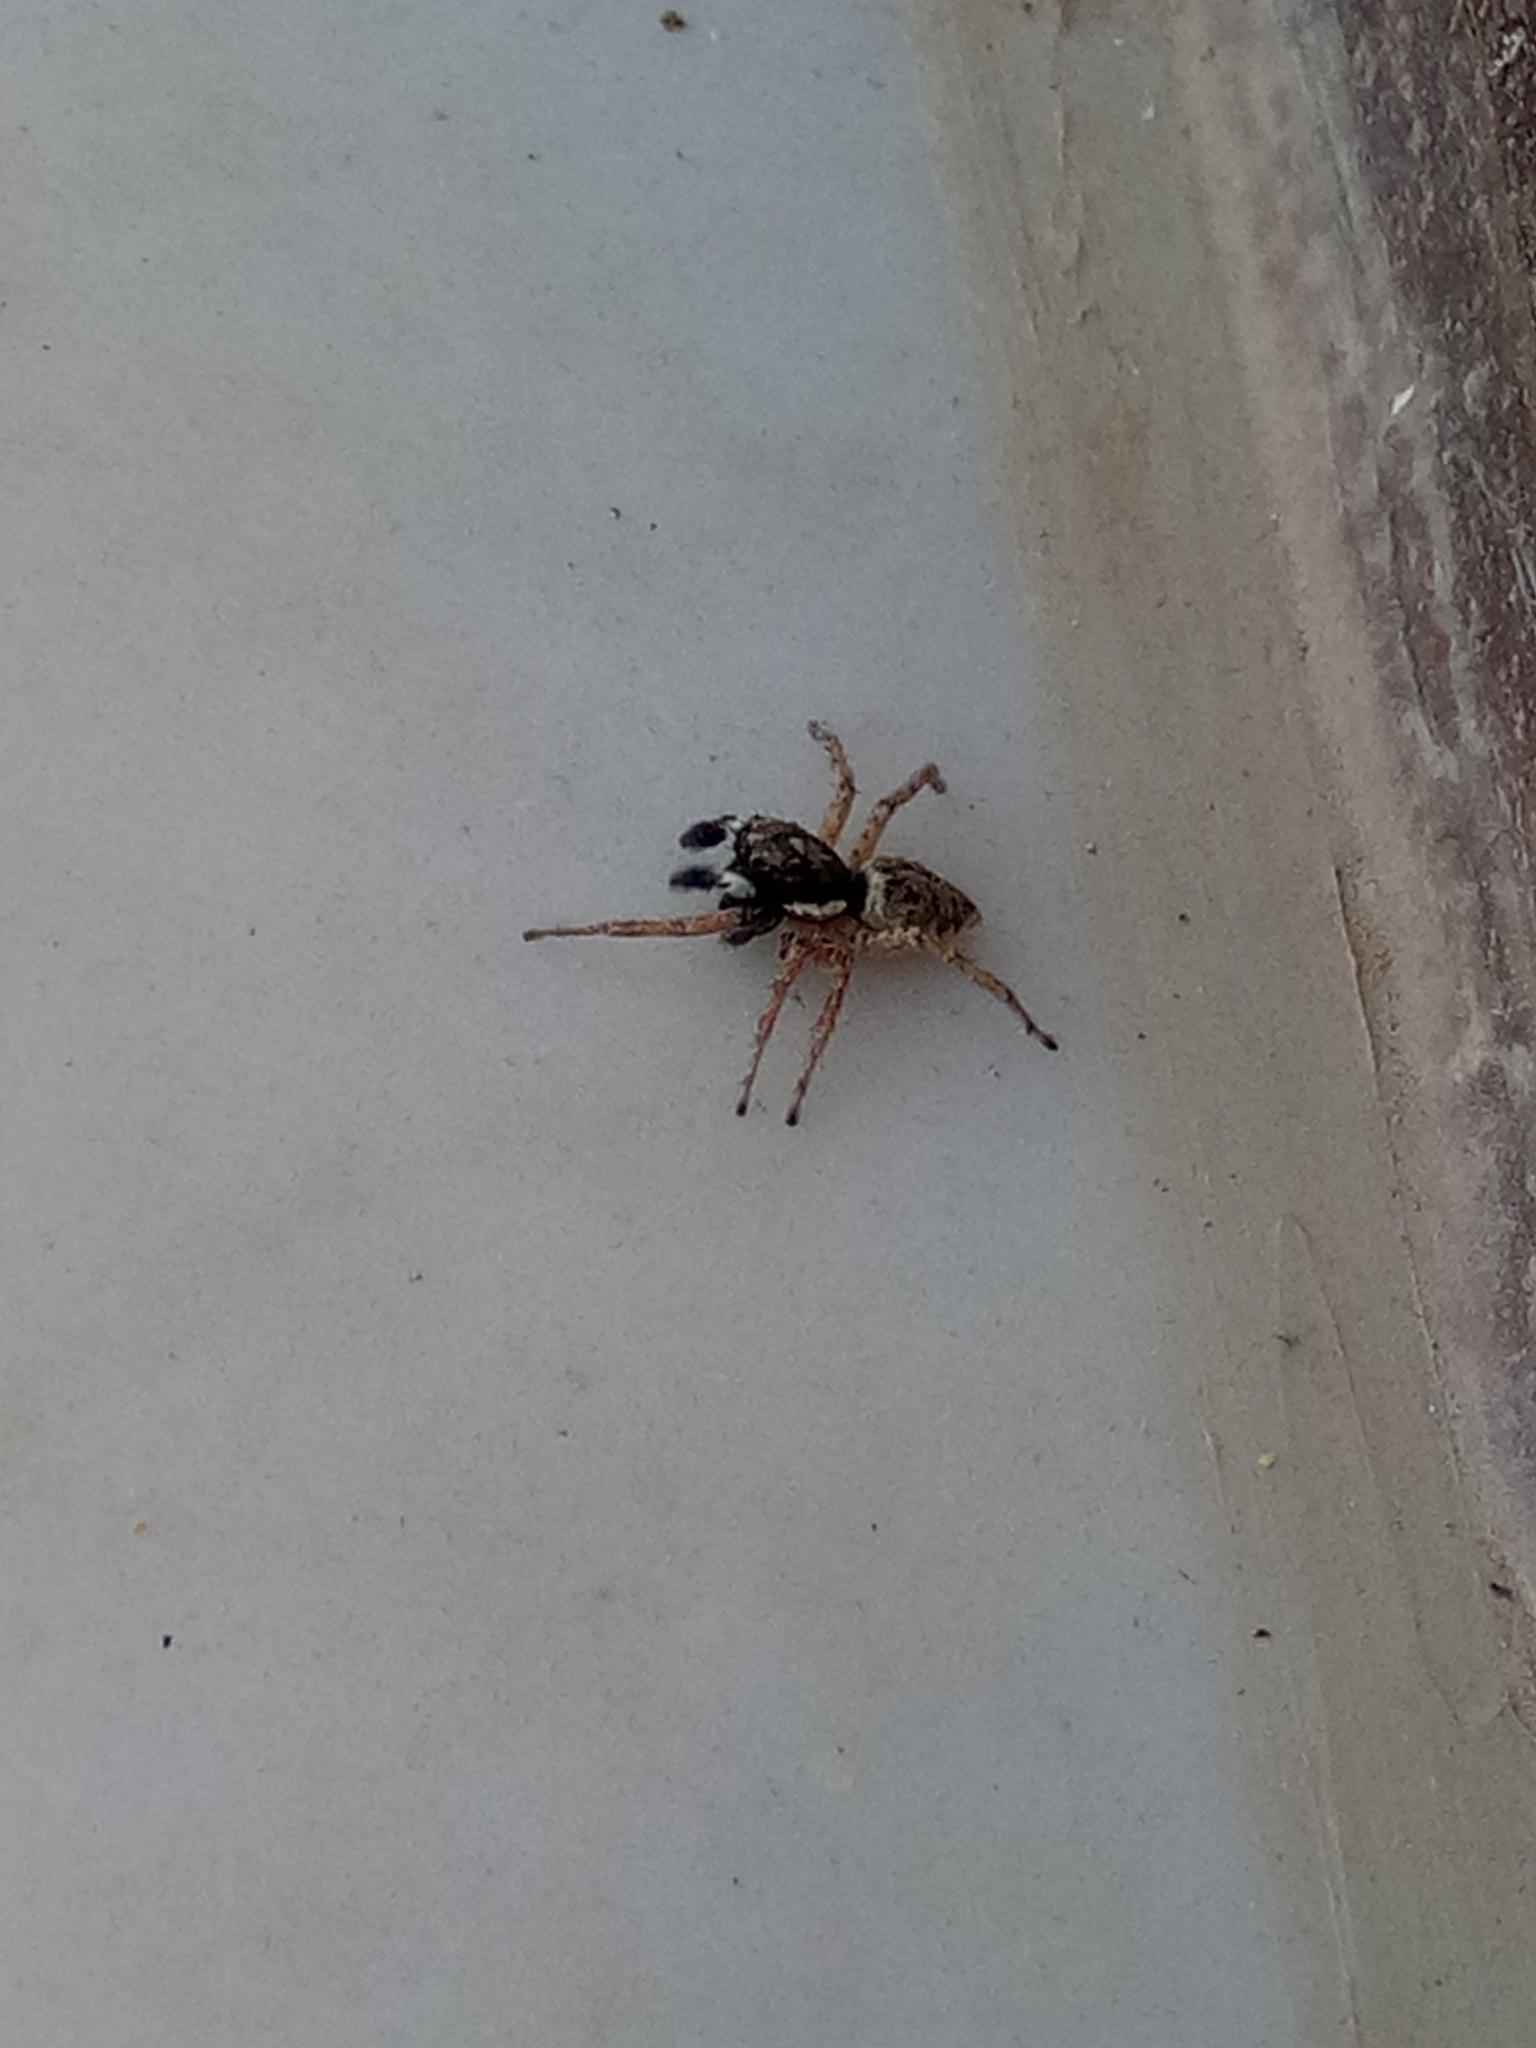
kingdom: Animalia
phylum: Arthropoda
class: Arachnida
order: Araneae
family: Salticidae
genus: Menemerus
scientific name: Menemerus semilimbatus
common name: Jumping spider
